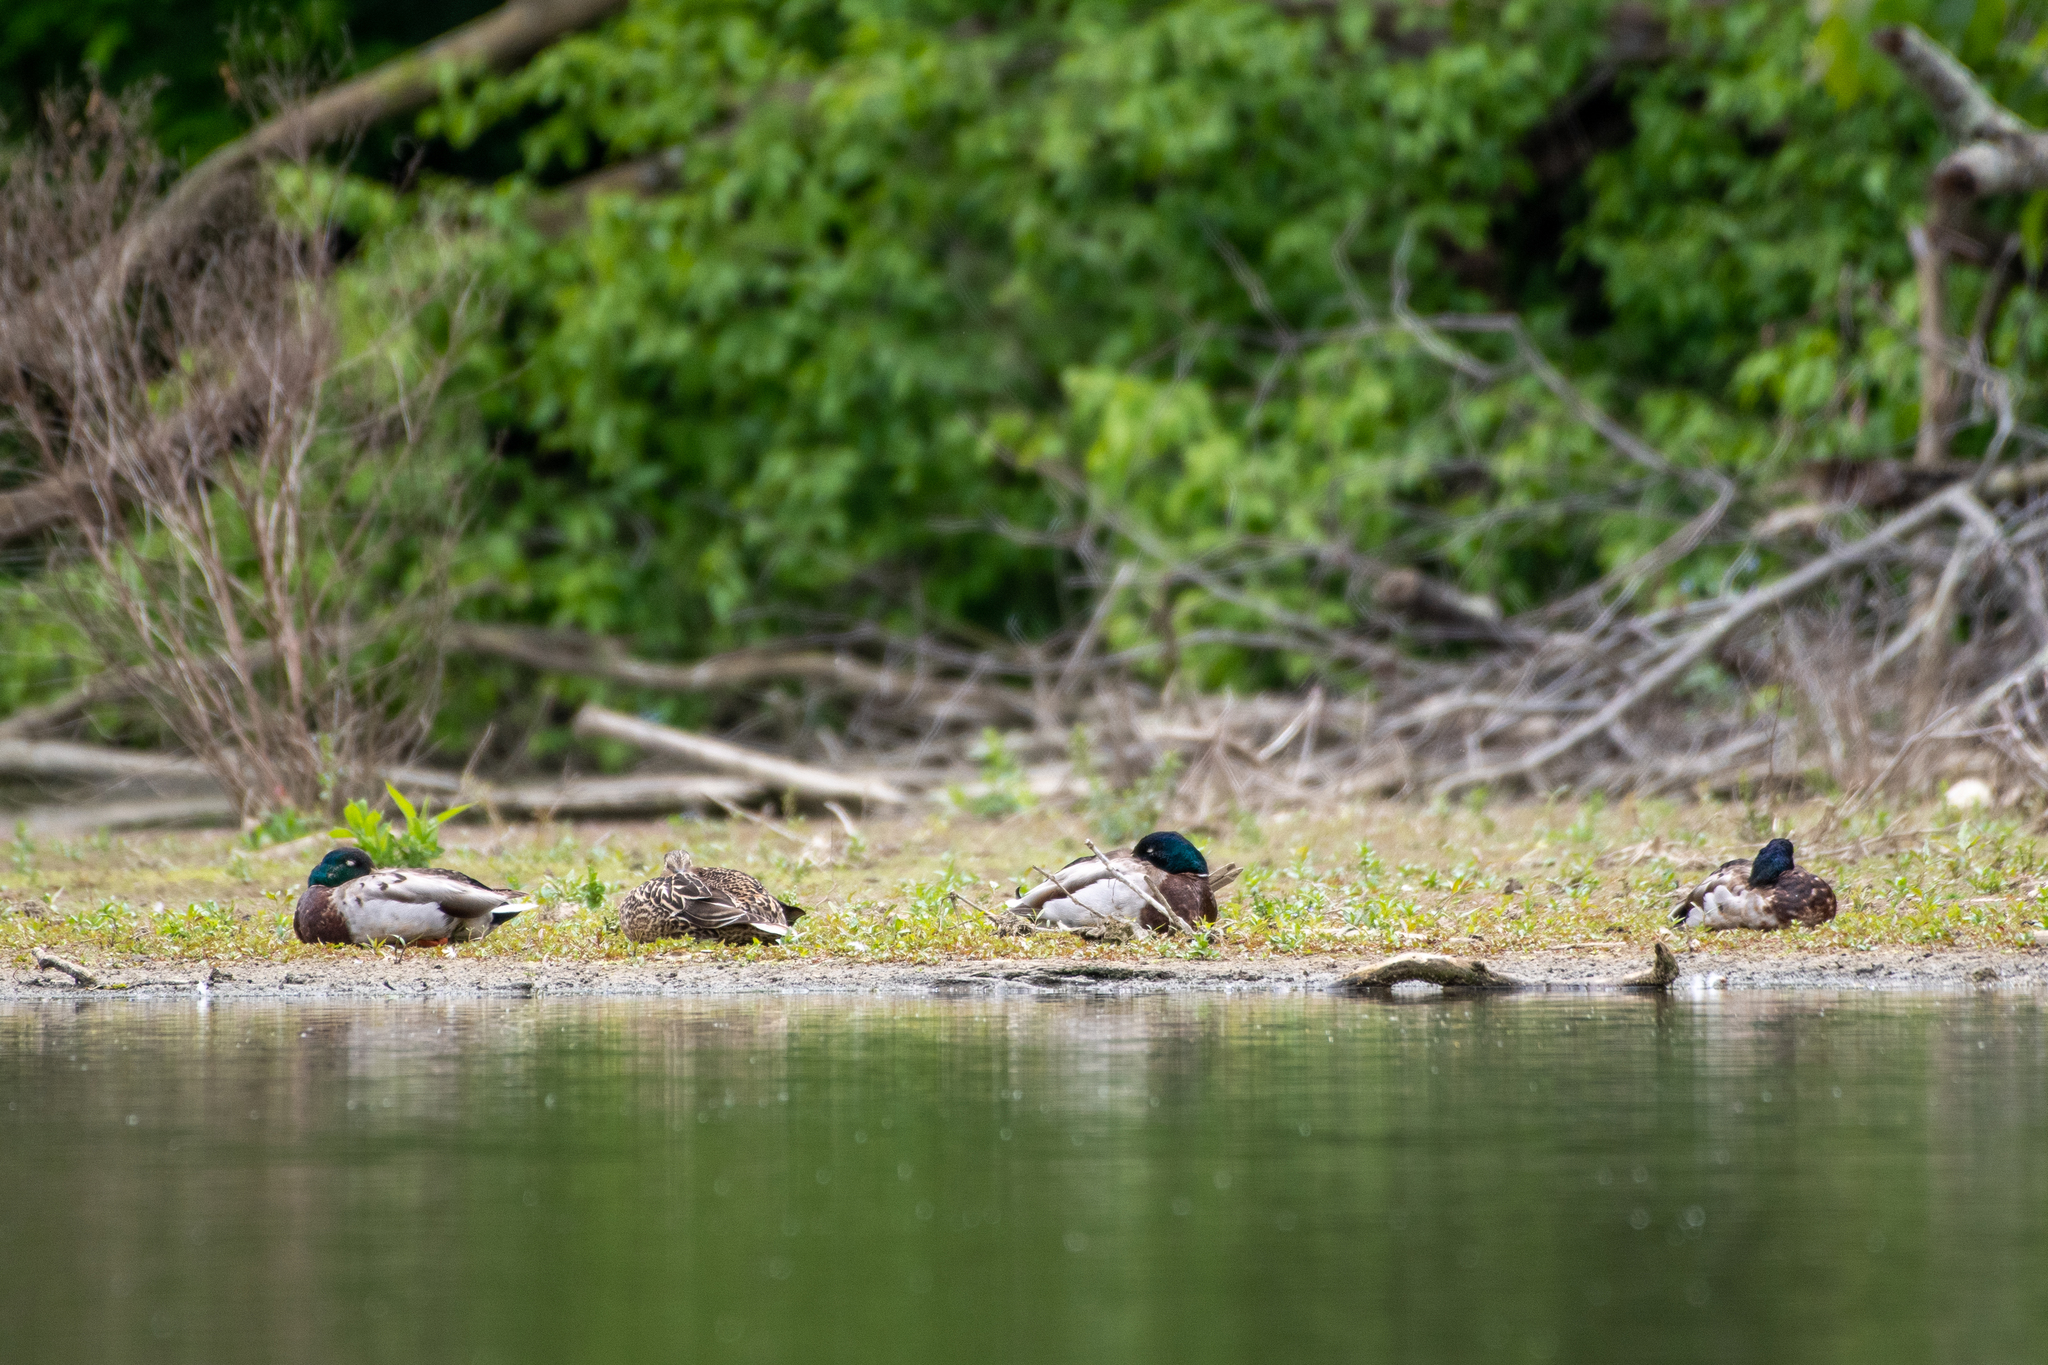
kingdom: Animalia
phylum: Chordata
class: Aves
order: Anseriformes
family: Anatidae
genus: Anas
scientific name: Anas platyrhynchos
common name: Mallard
